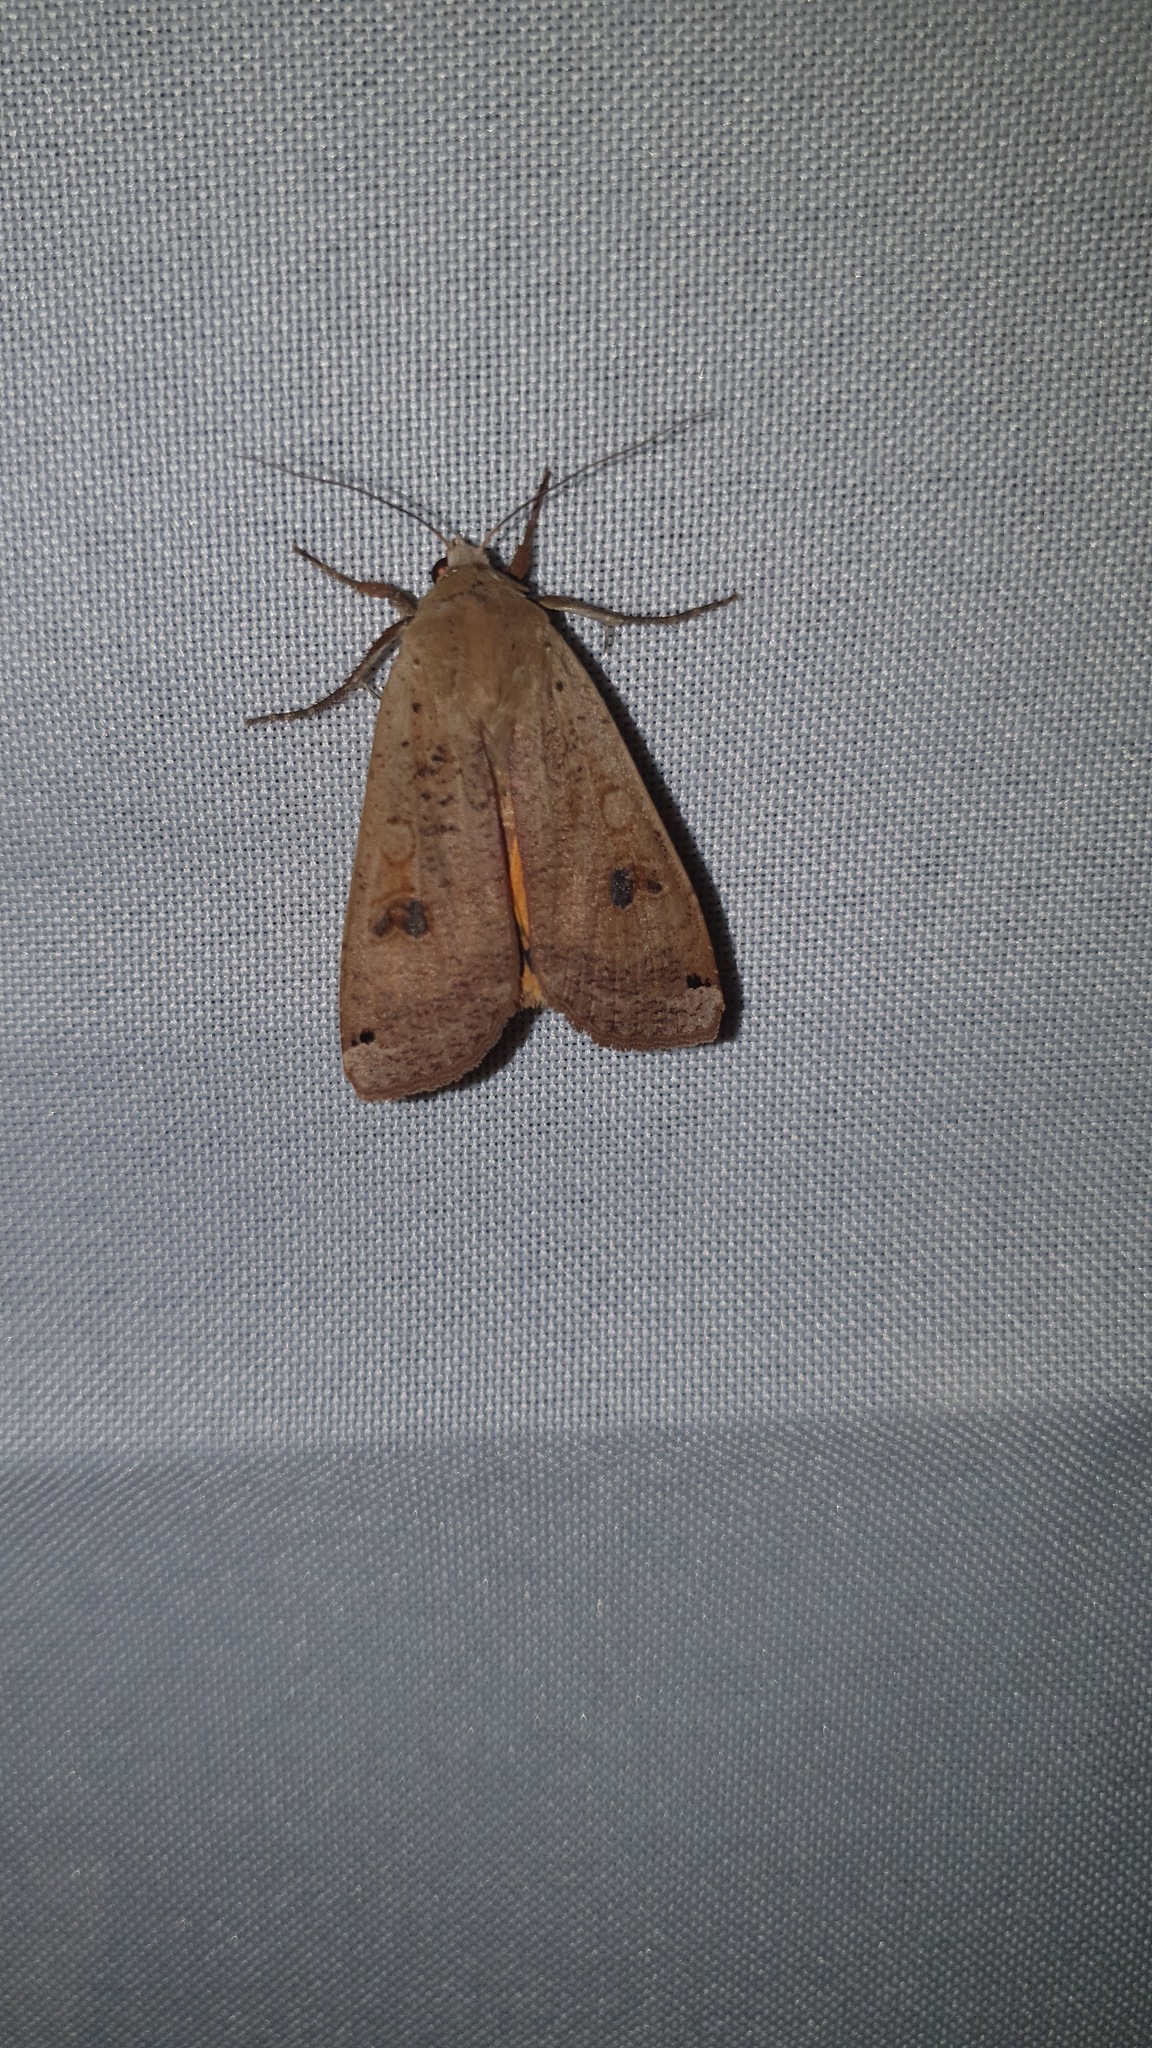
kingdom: Animalia
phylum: Arthropoda
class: Insecta
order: Lepidoptera
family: Noctuidae
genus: Noctua
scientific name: Noctua pronuba
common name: Large yellow underwing
